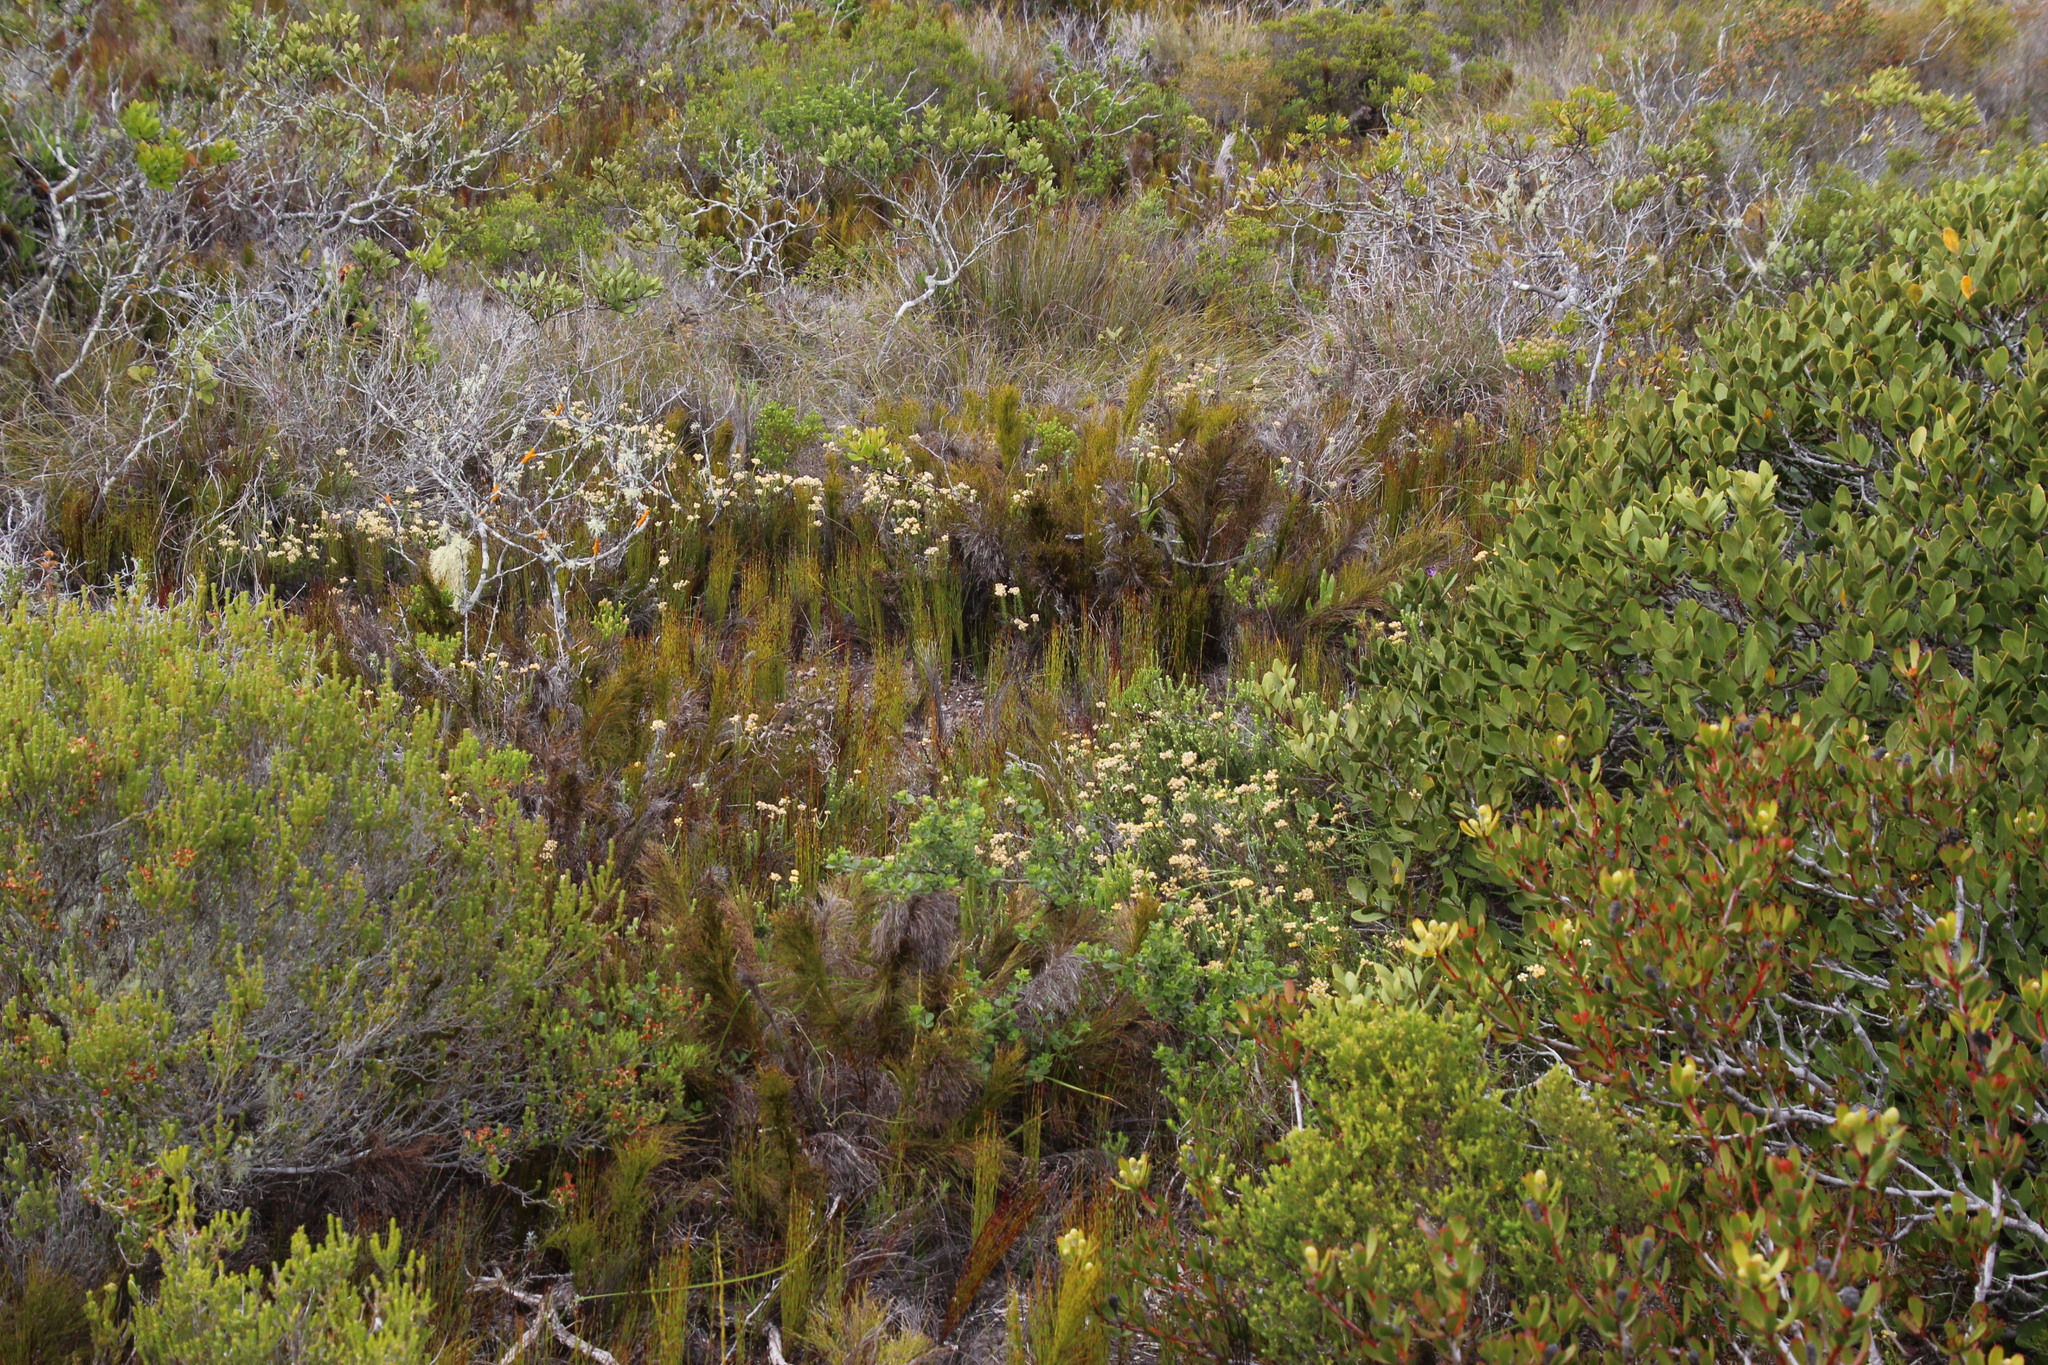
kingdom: Plantae
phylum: Tracheophyta
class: Magnoliopsida
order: Asterales
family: Asteraceae
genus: Helichrysum
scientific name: Helichrysum teretifolium
